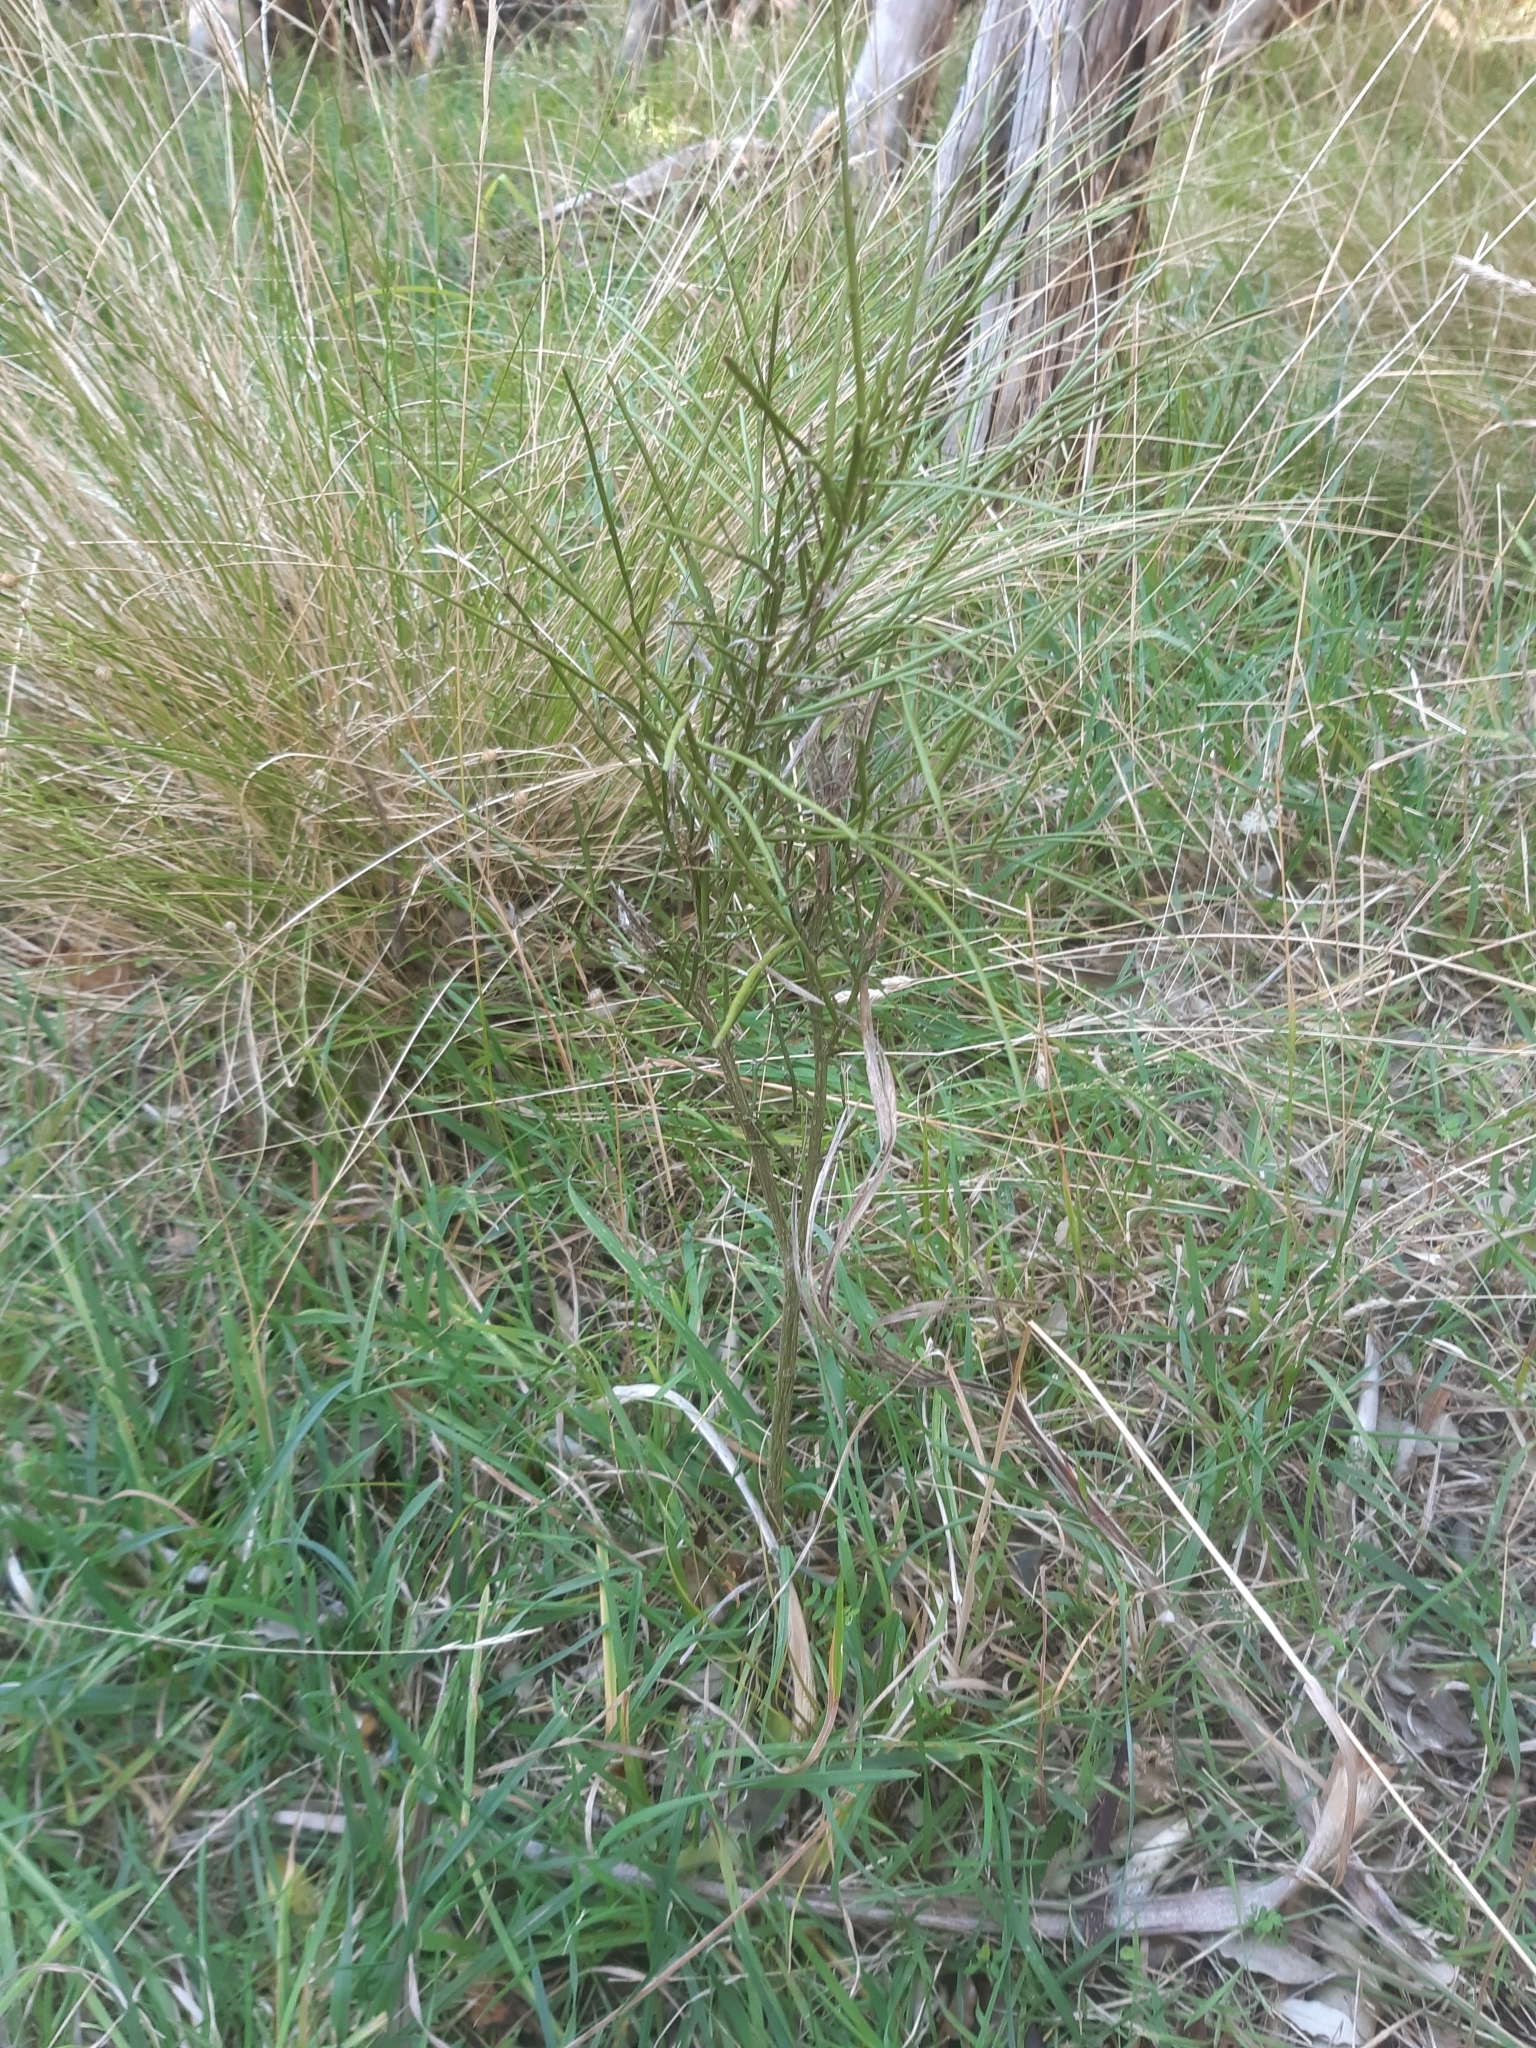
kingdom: Plantae
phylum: Tracheophyta
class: Magnoliopsida
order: Fabales
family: Fabaceae
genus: Carmichaelia
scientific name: Carmichaelia australis
